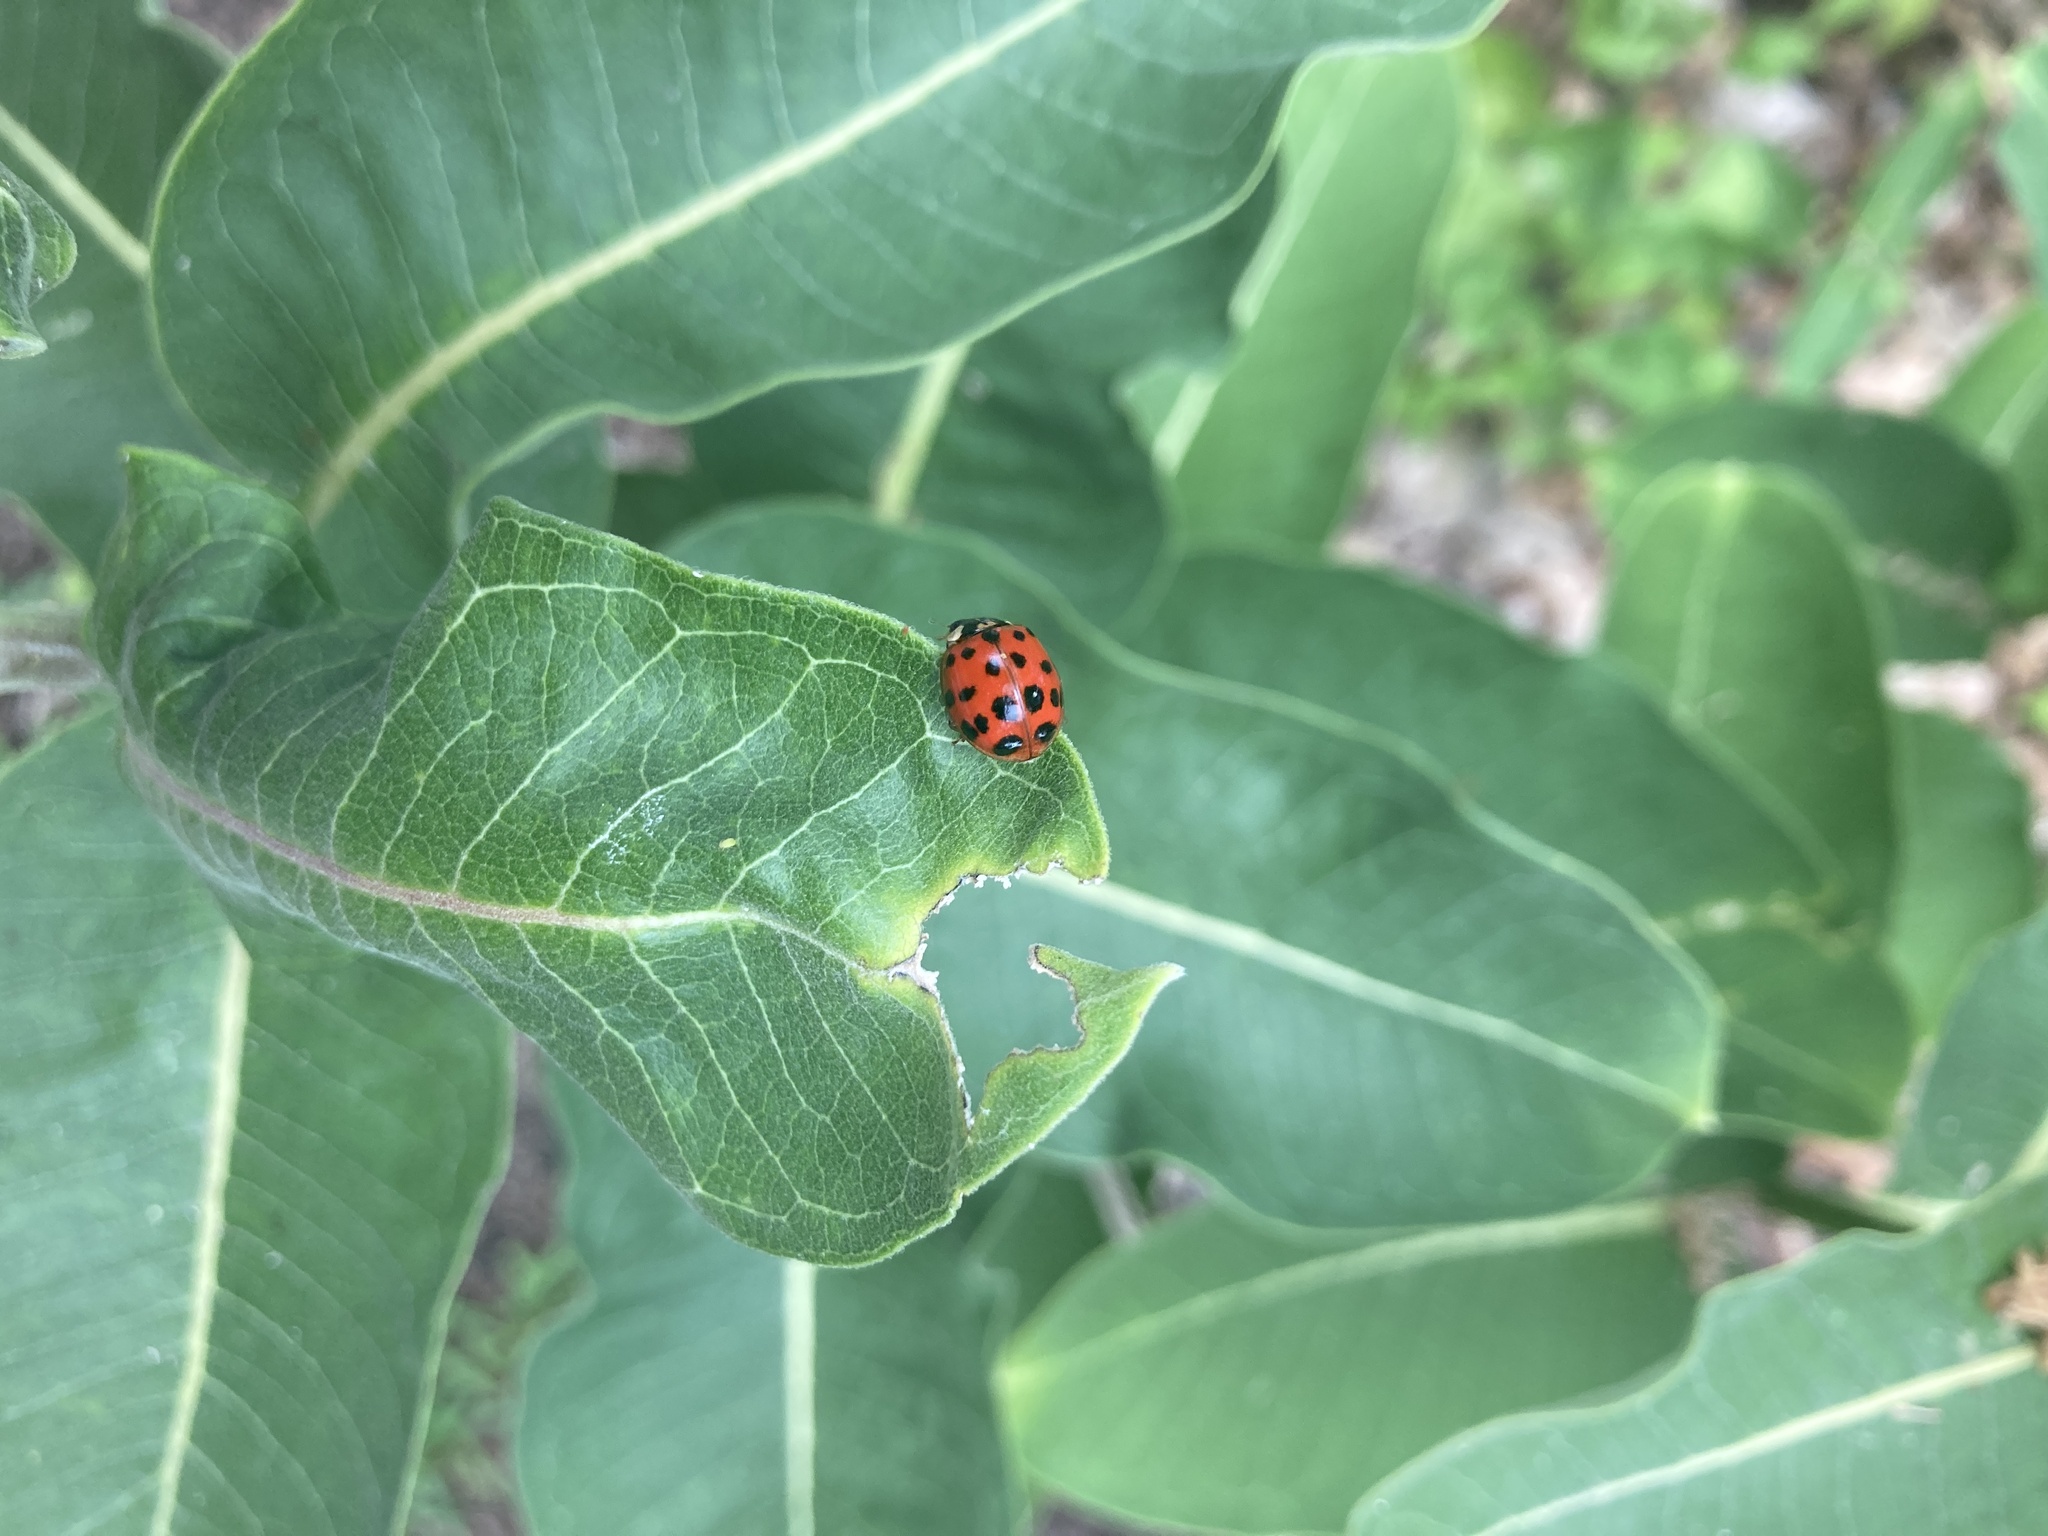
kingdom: Animalia
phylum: Arthropoda
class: Insecta
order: Coleoptera
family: Coccinellidae
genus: Harmonia
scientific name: Harmonia axyridis
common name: Harlequin ladybird
